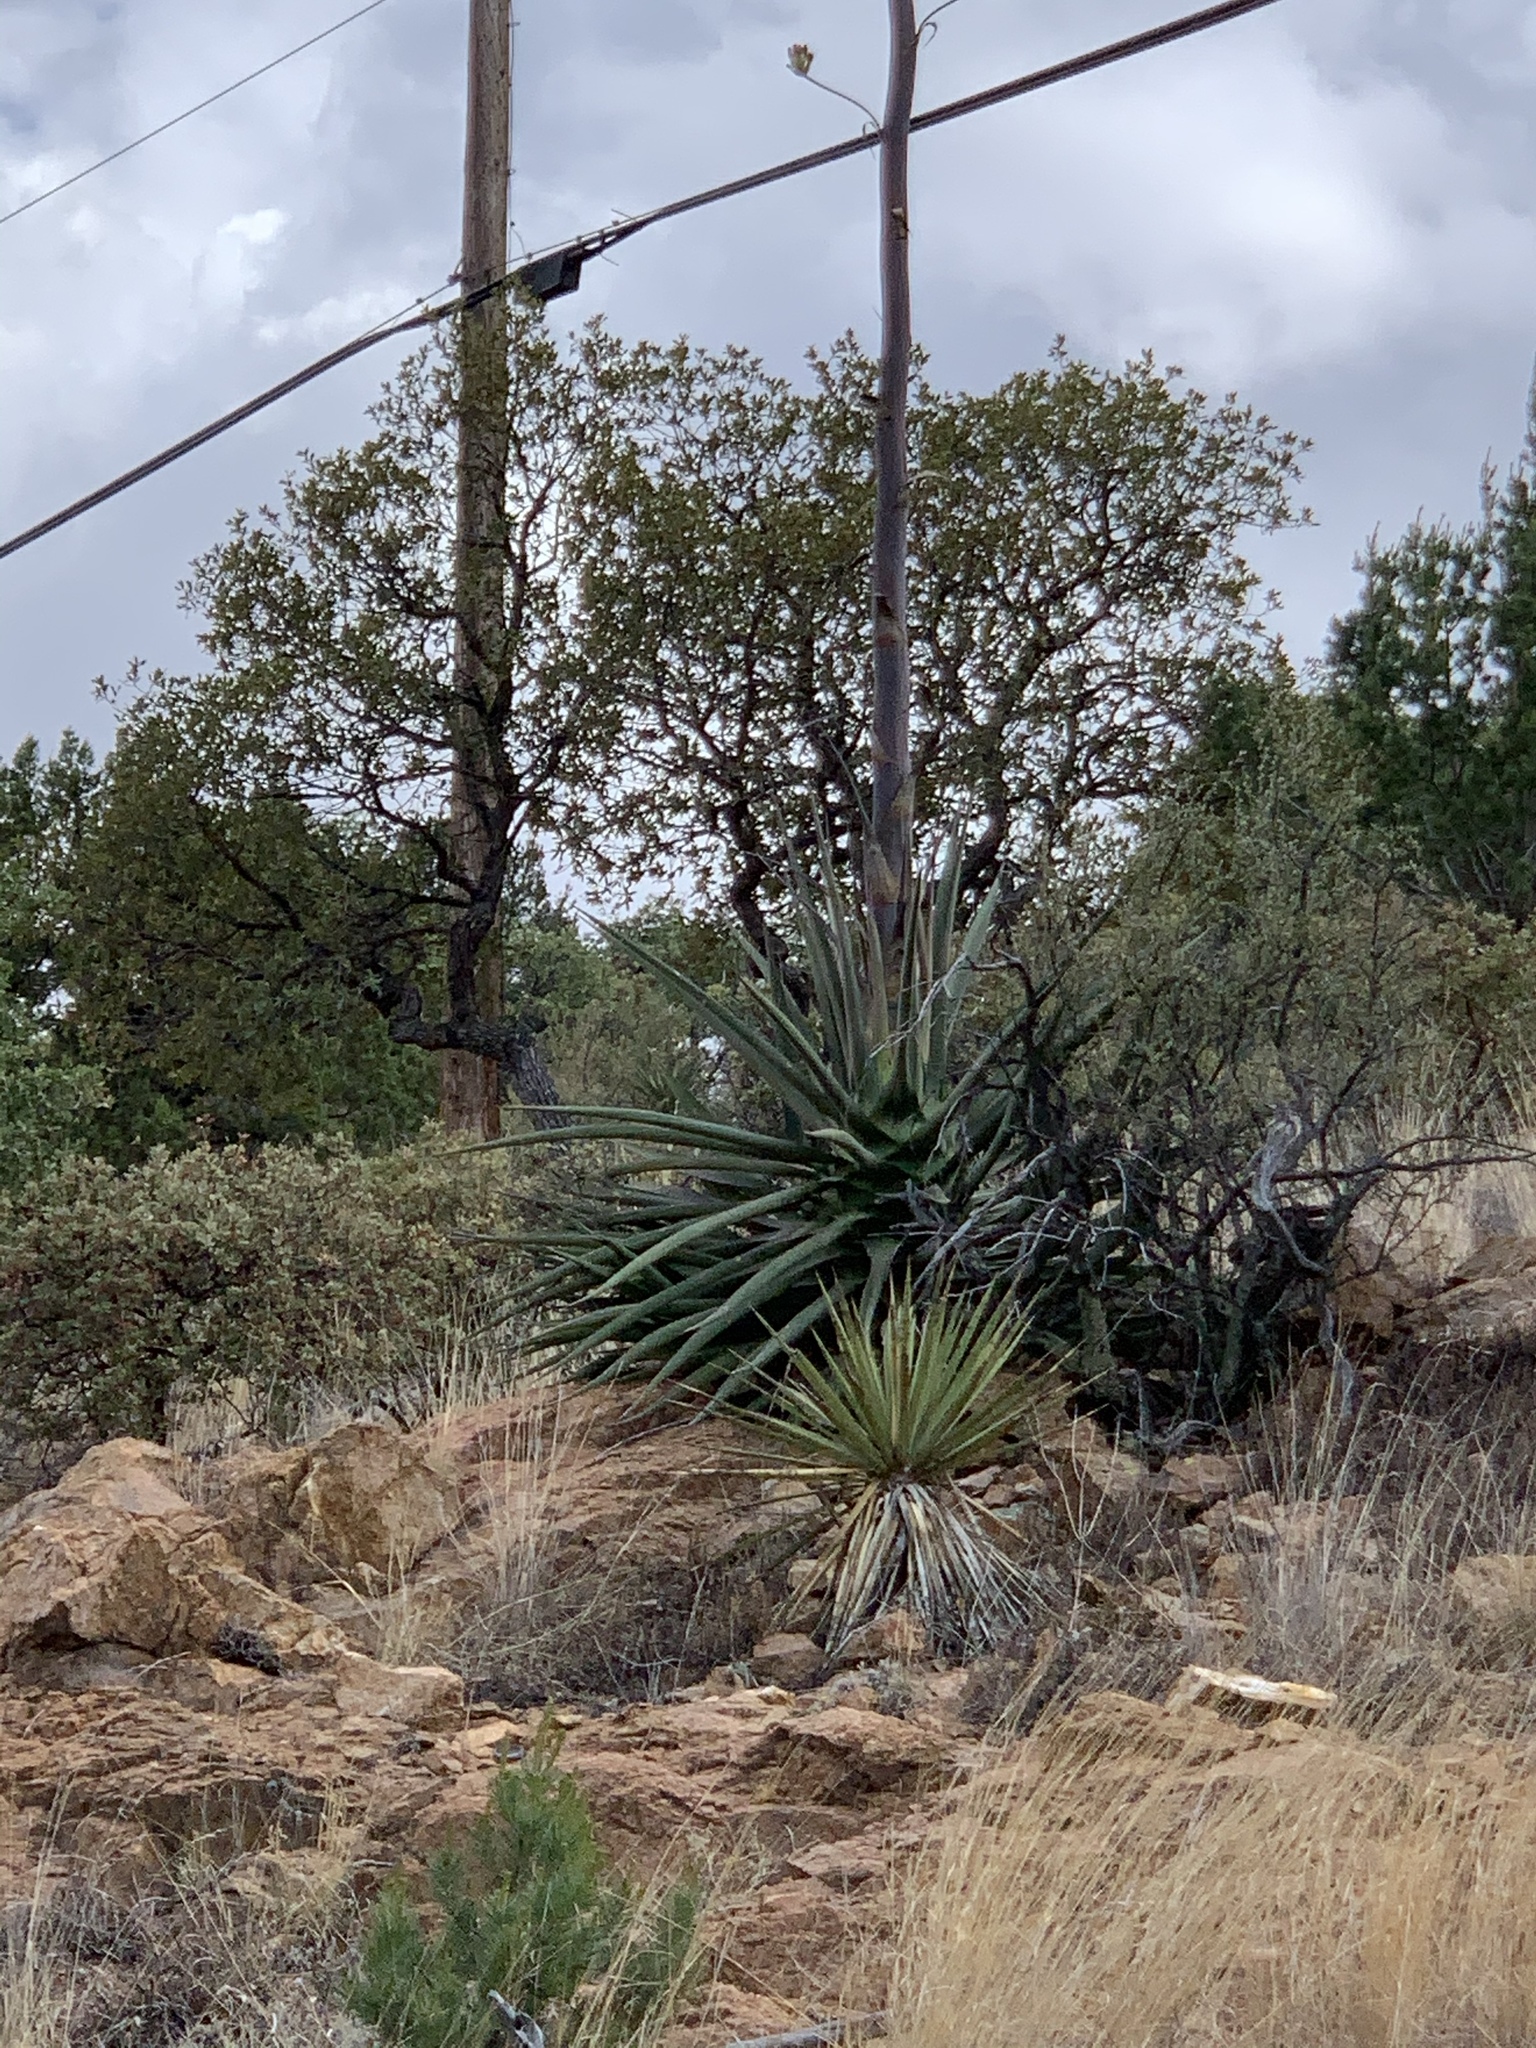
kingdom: Plantae
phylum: Tracheophyta
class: Liliopsida
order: Asparagales
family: Asparagaceae
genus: Agave
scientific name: Agave palmeri
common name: Palmer agave
